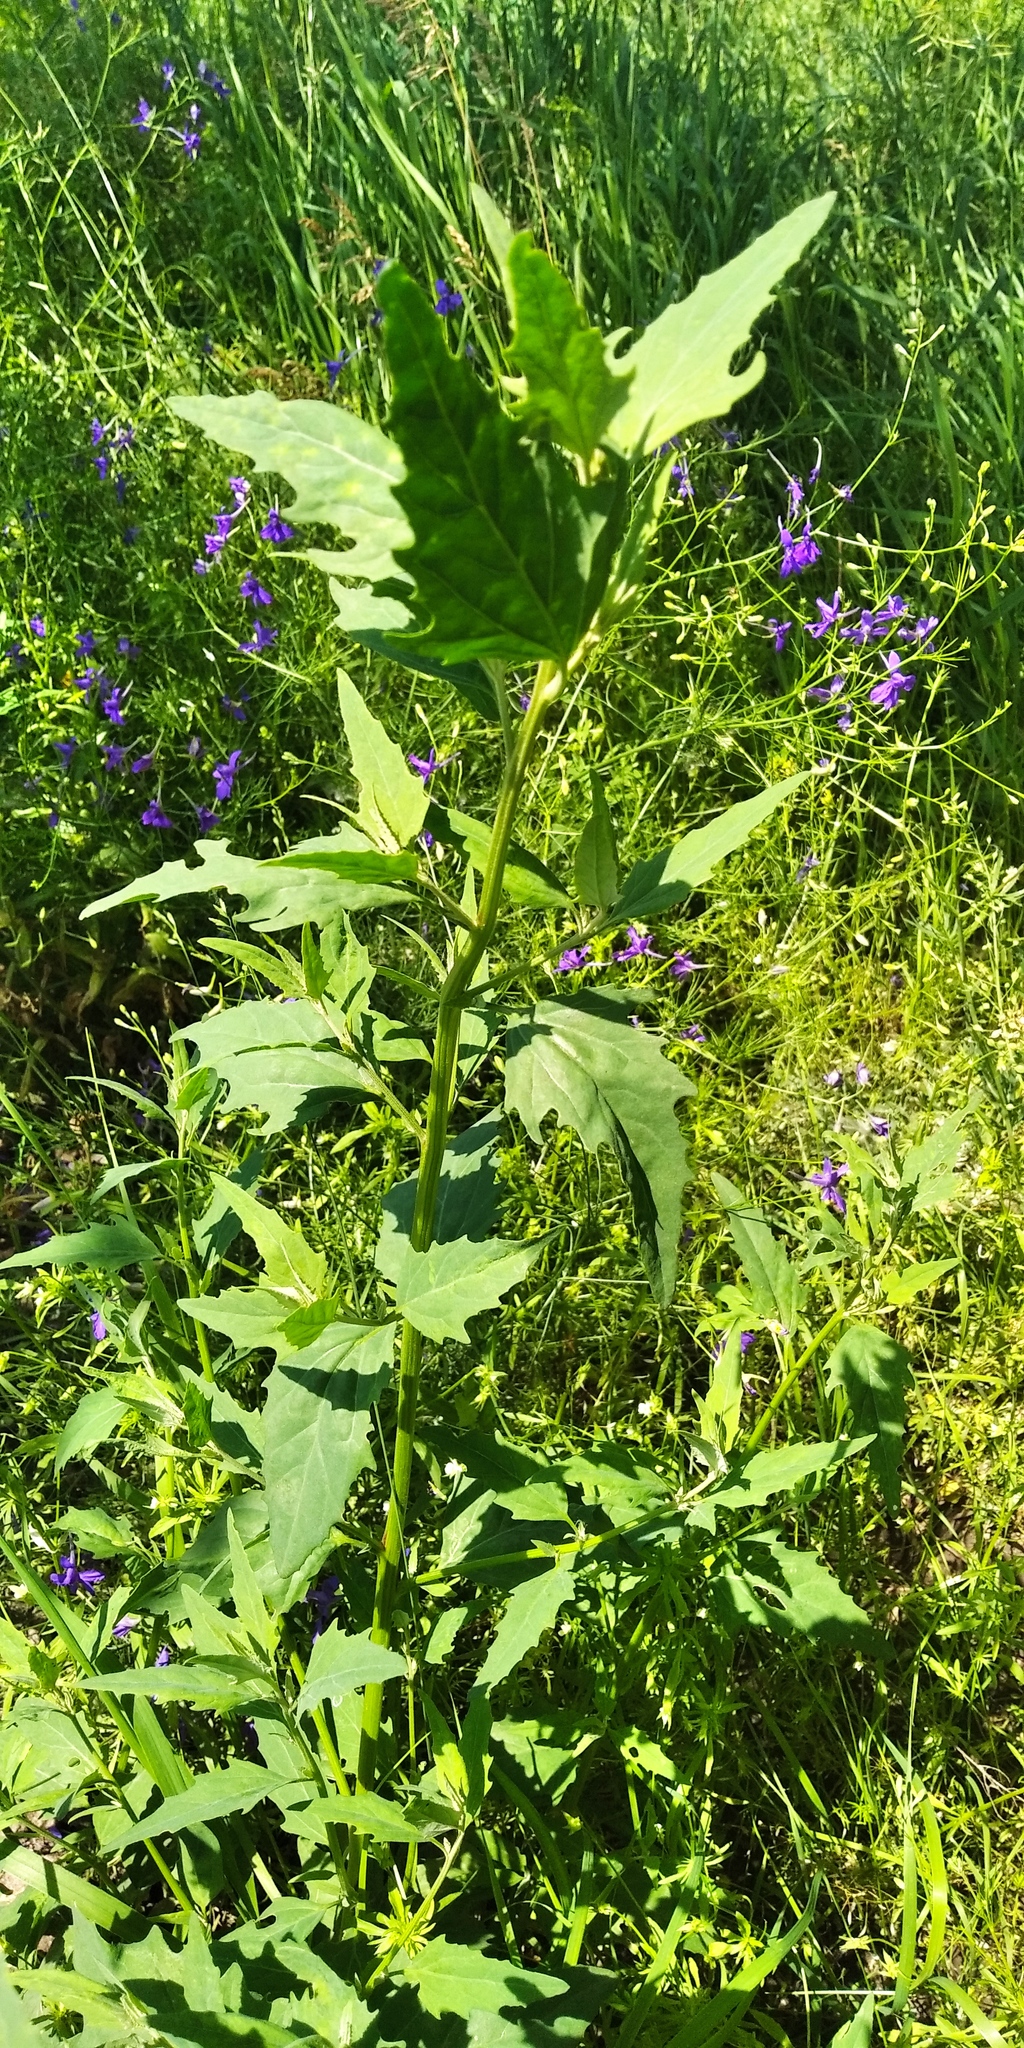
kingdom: Plantae
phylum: Tracheophyta
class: Magnoliopsida
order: Caryophyllales
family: Amaranthaceae
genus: Atriplex
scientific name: Atriplex patula
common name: Common orache
